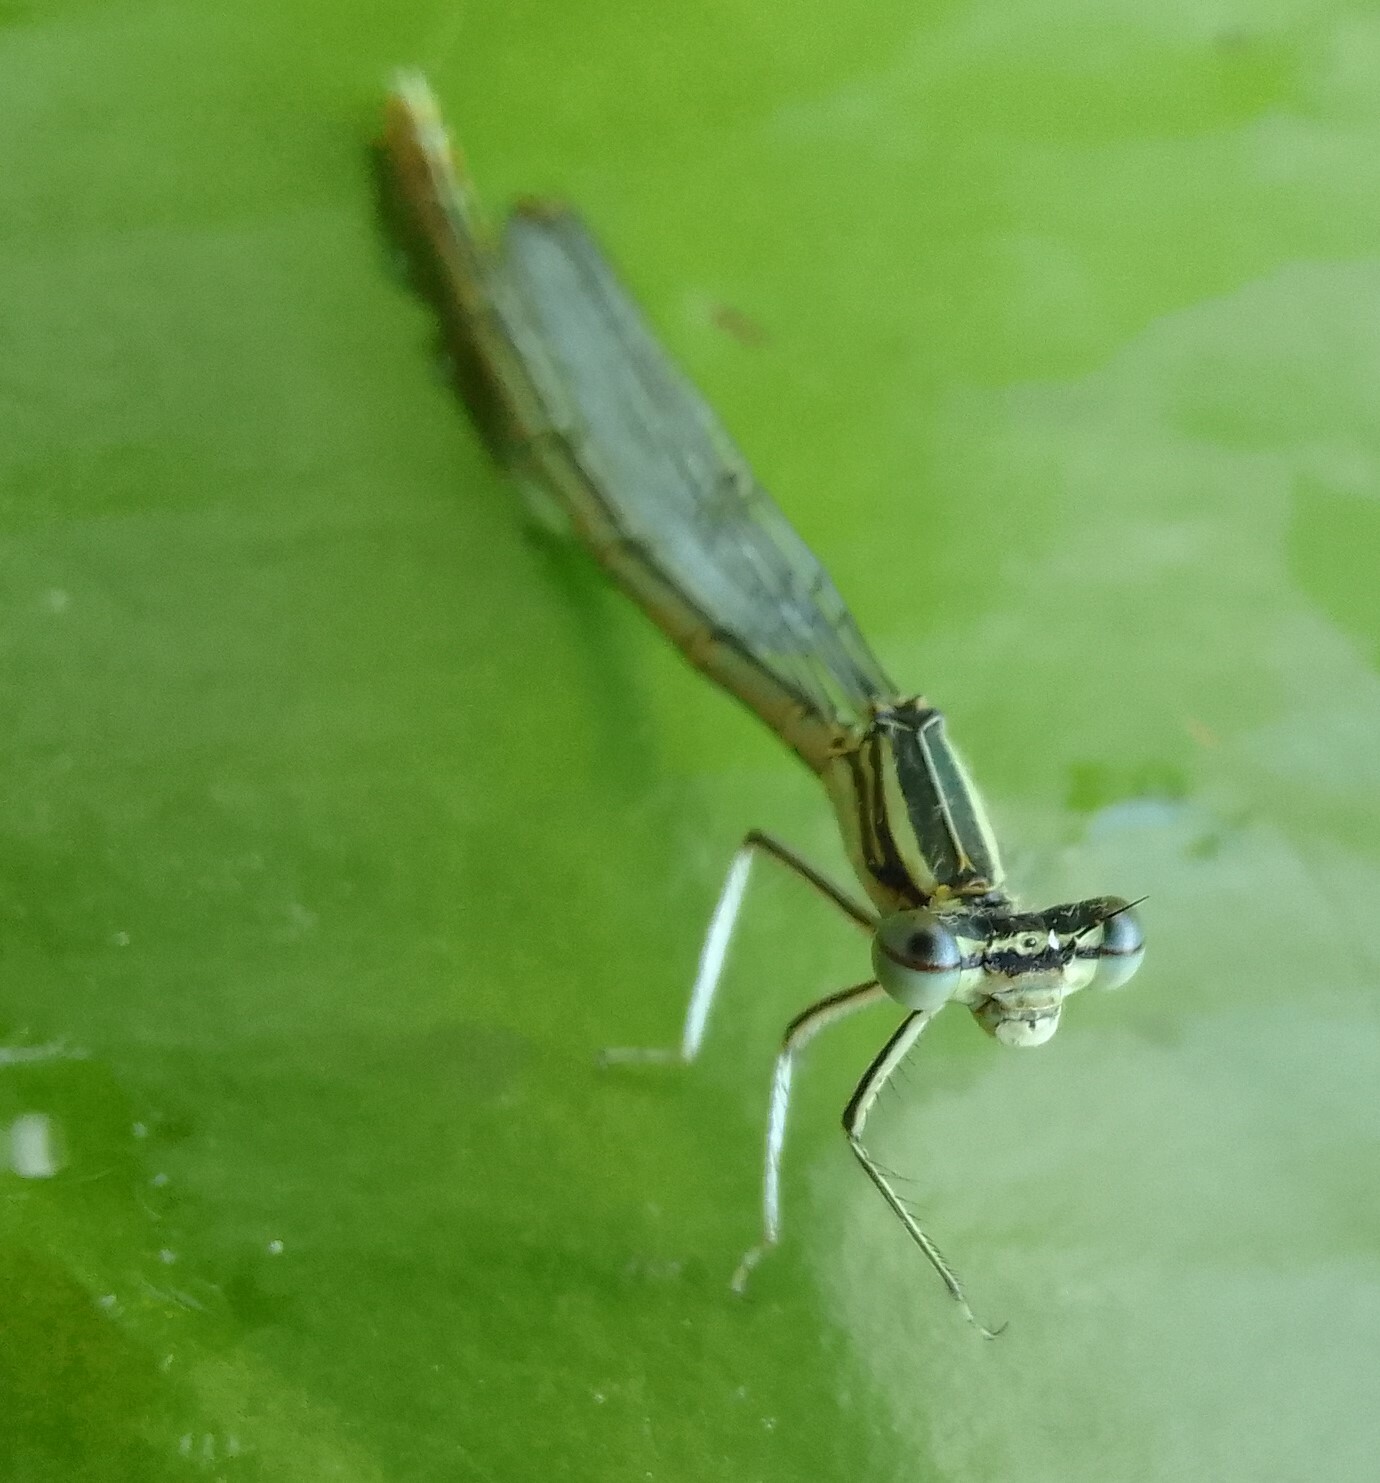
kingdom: Animalia
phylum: Arthropoda
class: Insecta
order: Odonata
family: Platycnemididae
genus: Platycnemis
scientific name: Platycnemis pennipes
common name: White-legged damselfly
